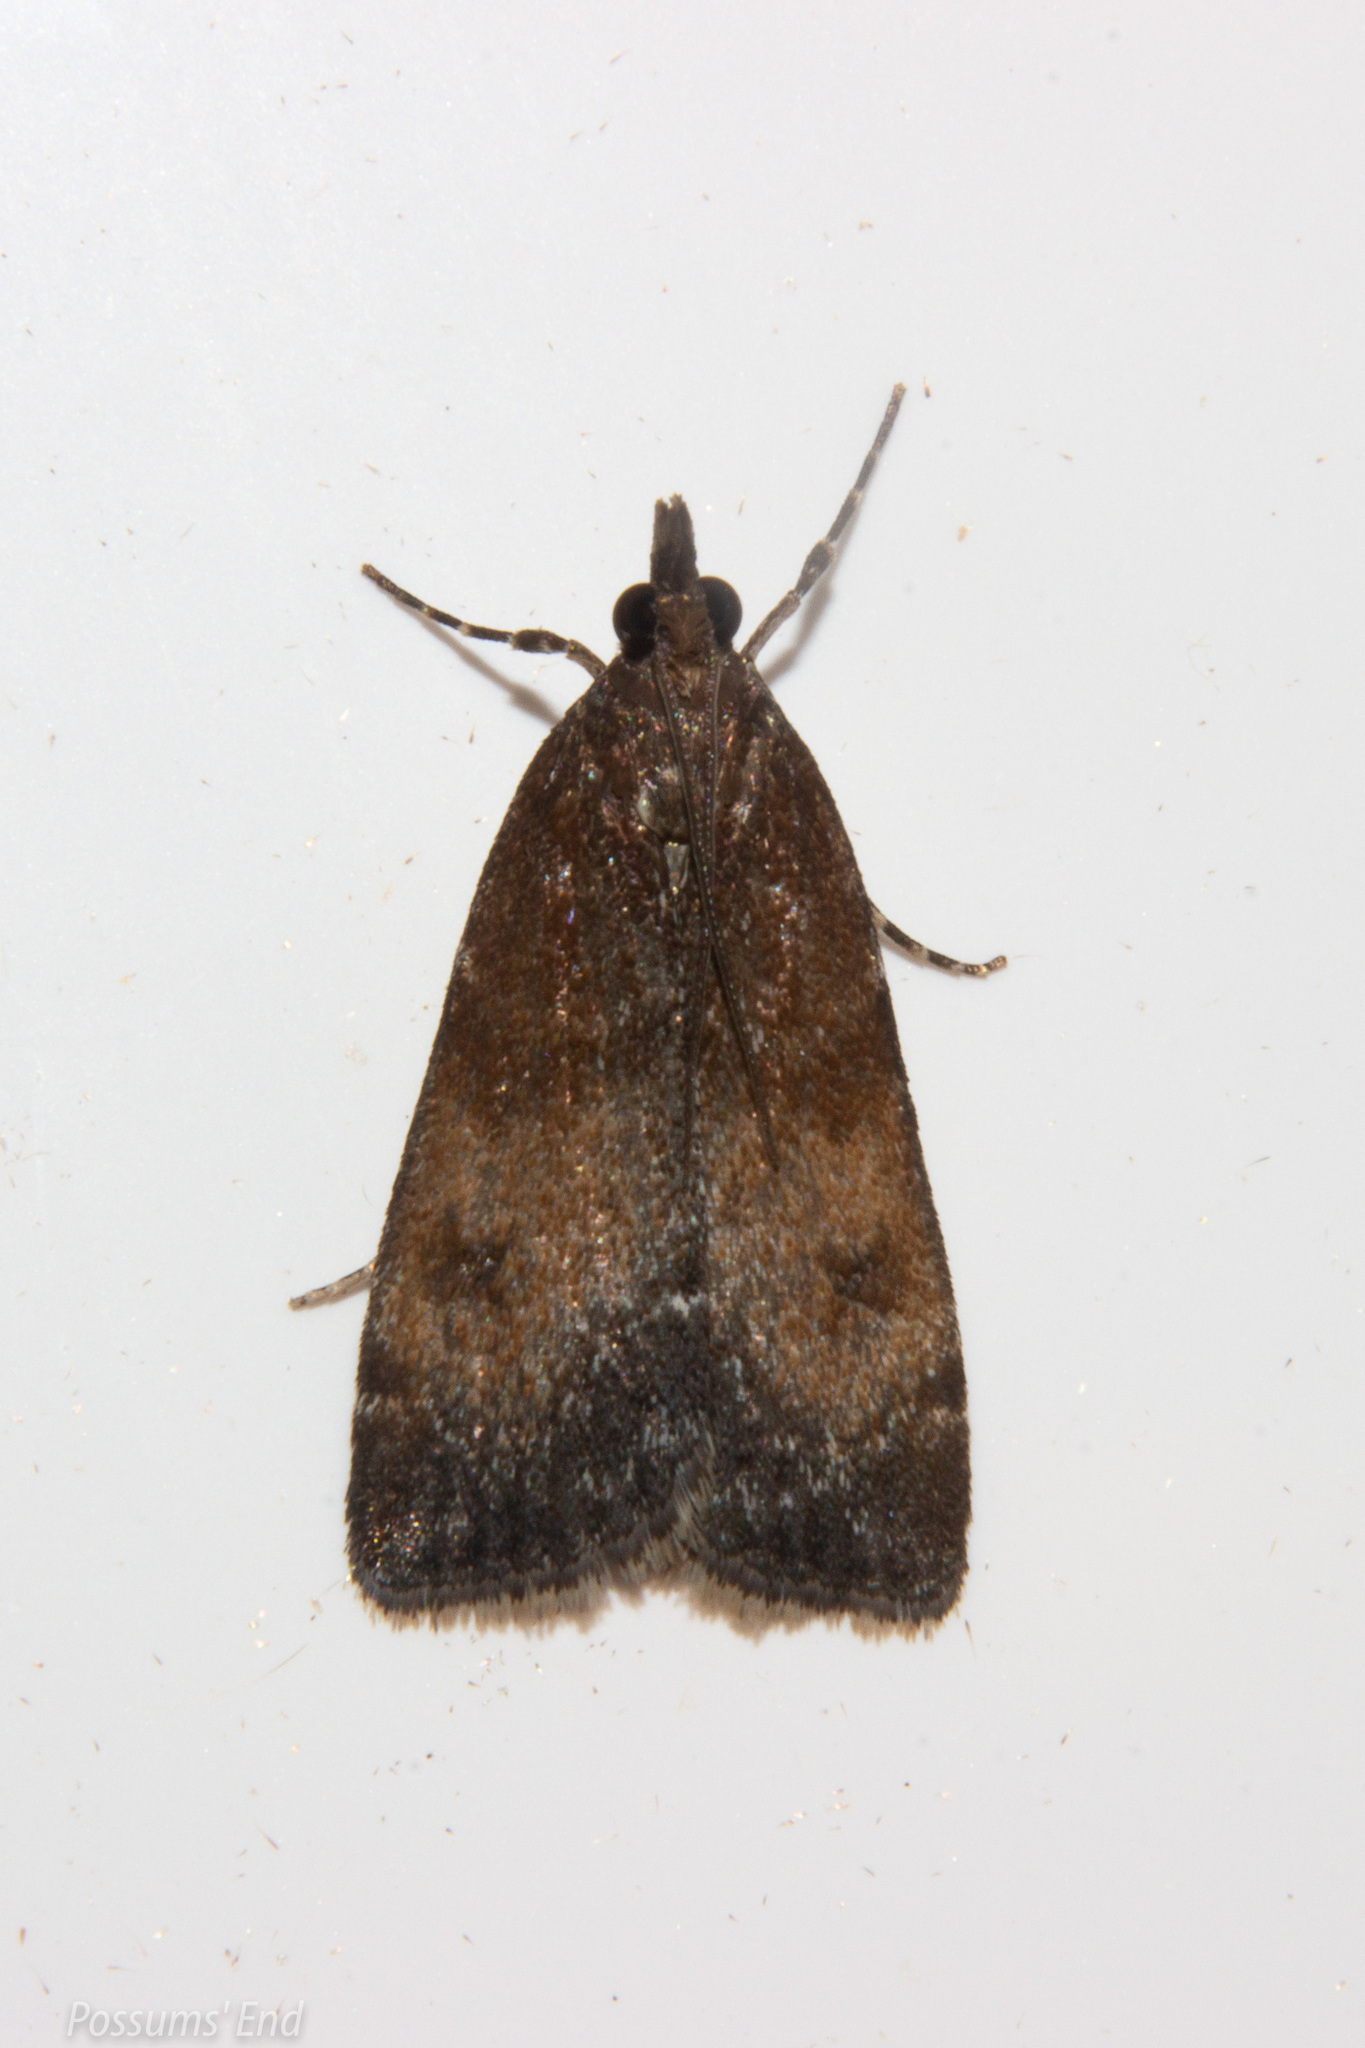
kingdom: Animalia
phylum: Arthropoda
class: Insecta
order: Lepidoptera
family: Crambidae
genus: Eudonia
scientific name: Eudonia asterisca
